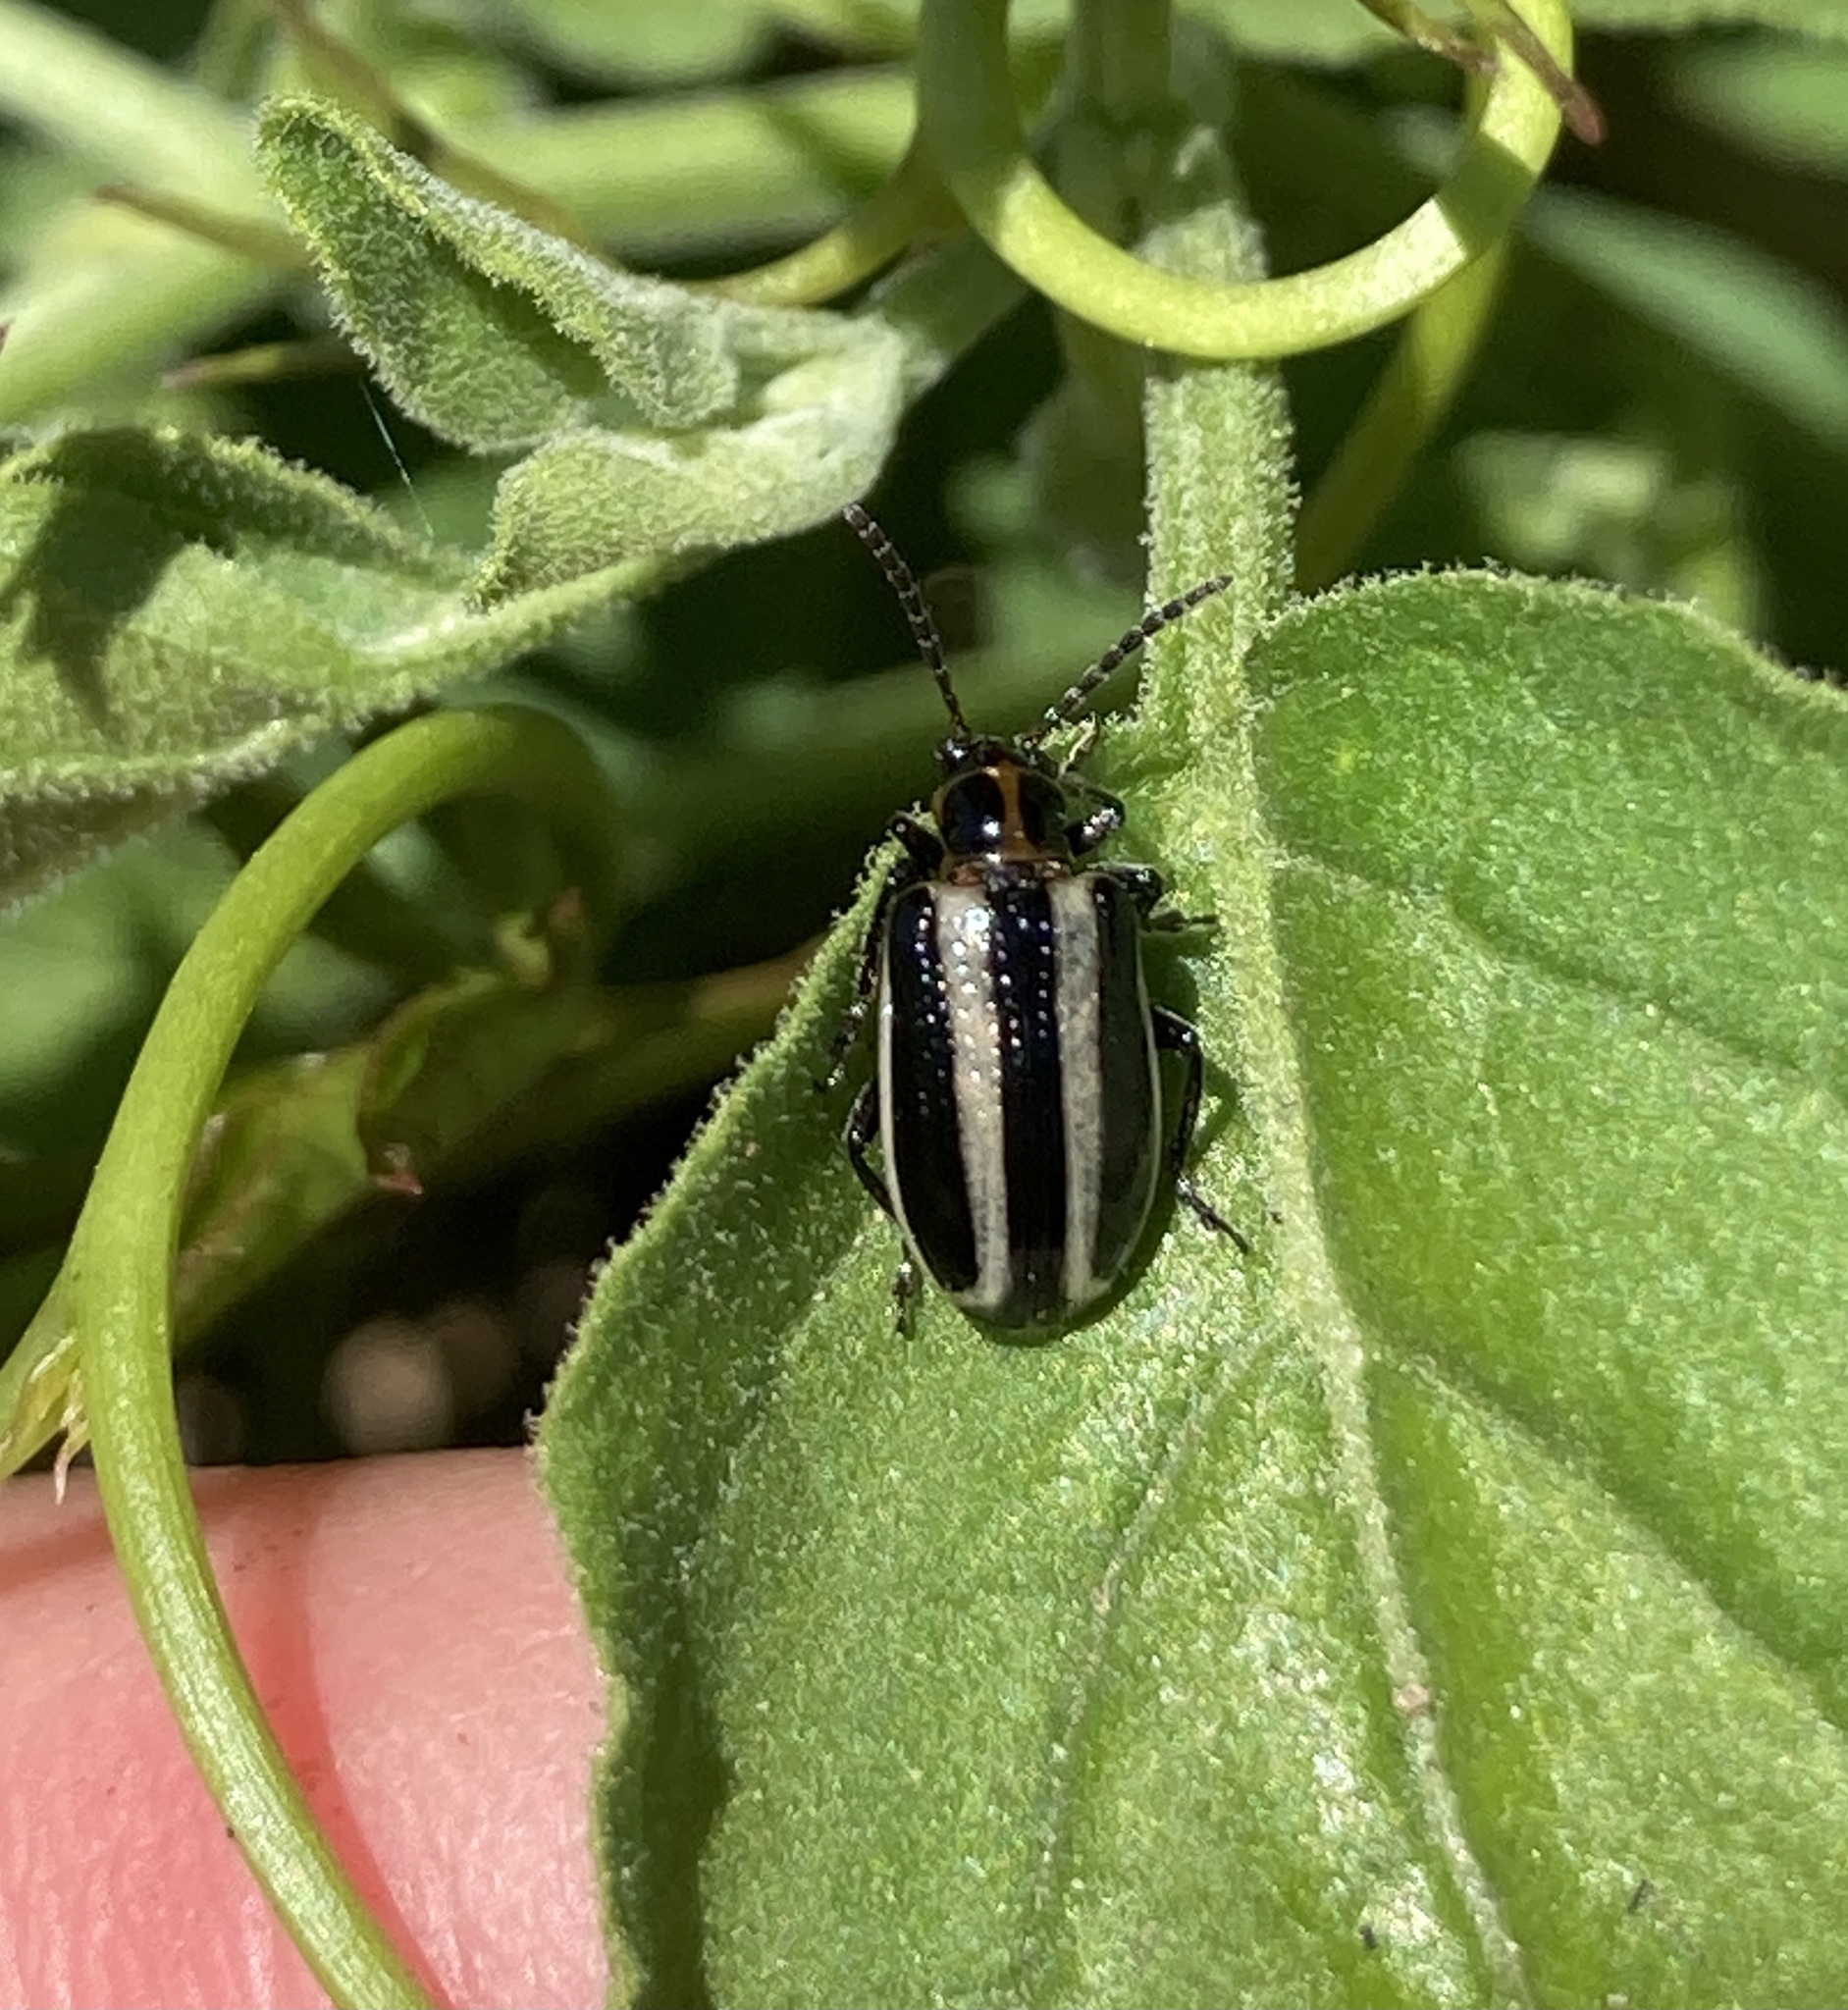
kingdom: Animalia
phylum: Arthropoda
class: Insecta
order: Coleoptera
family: Chrysomelidae
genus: Lema
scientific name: Lema bilineata
